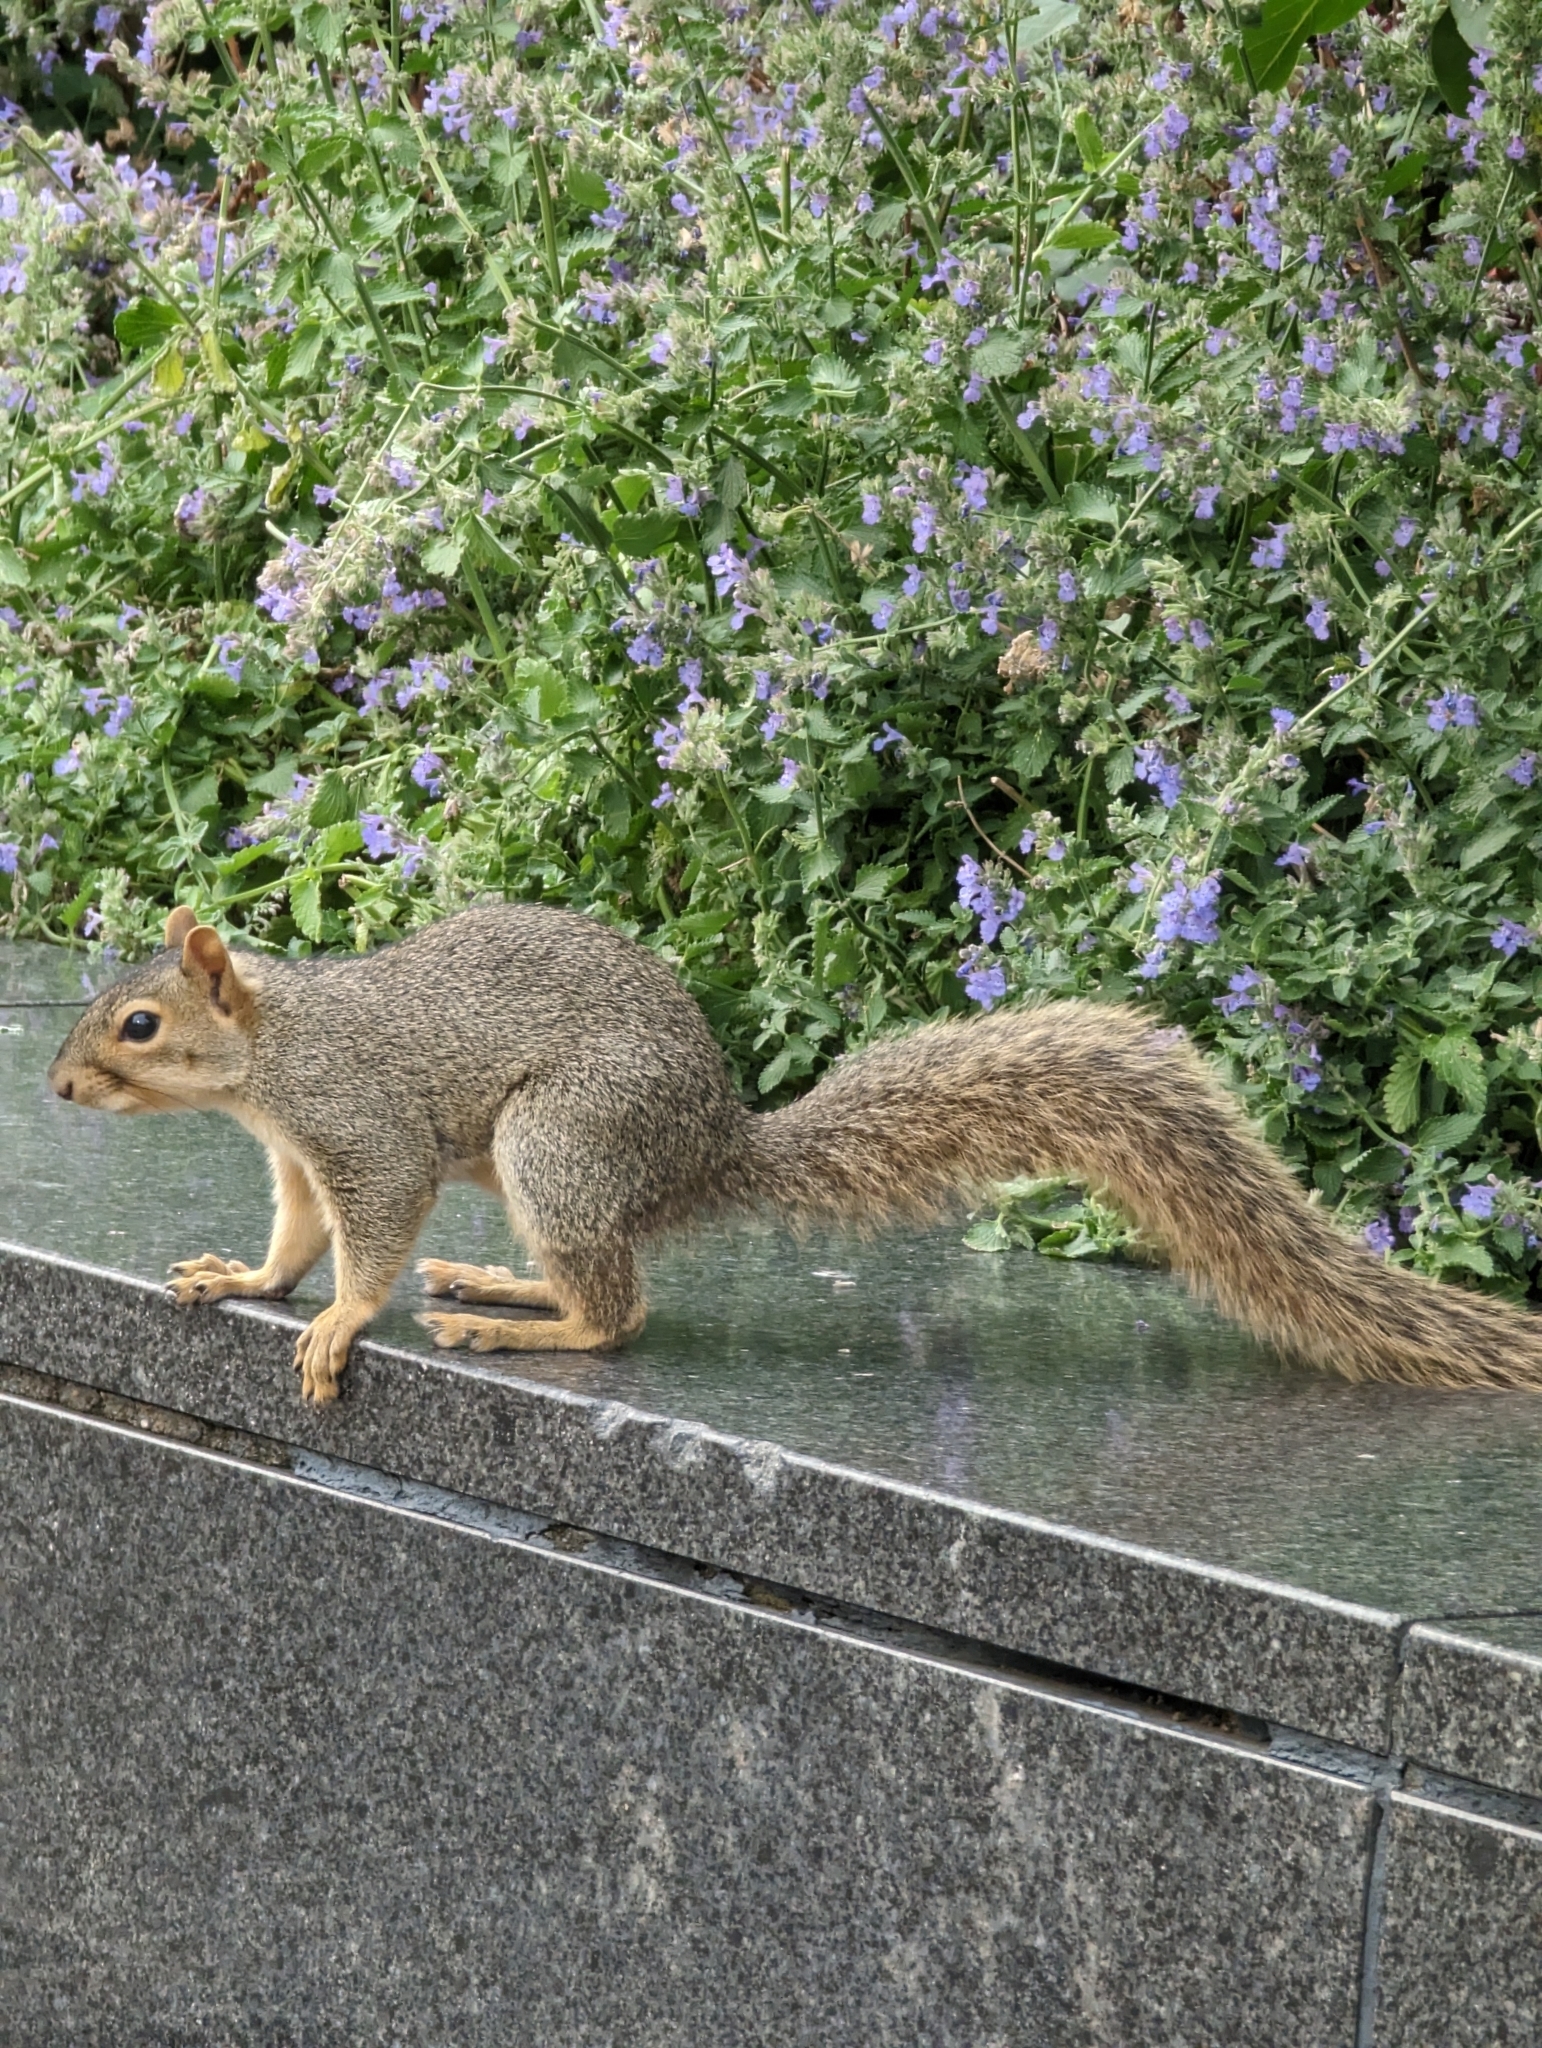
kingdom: Animalia
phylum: Chordata
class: Mammalia
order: Rodentia
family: Sciuridae
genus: Sciurus
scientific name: Sciurus niger
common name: Fox squirrel
